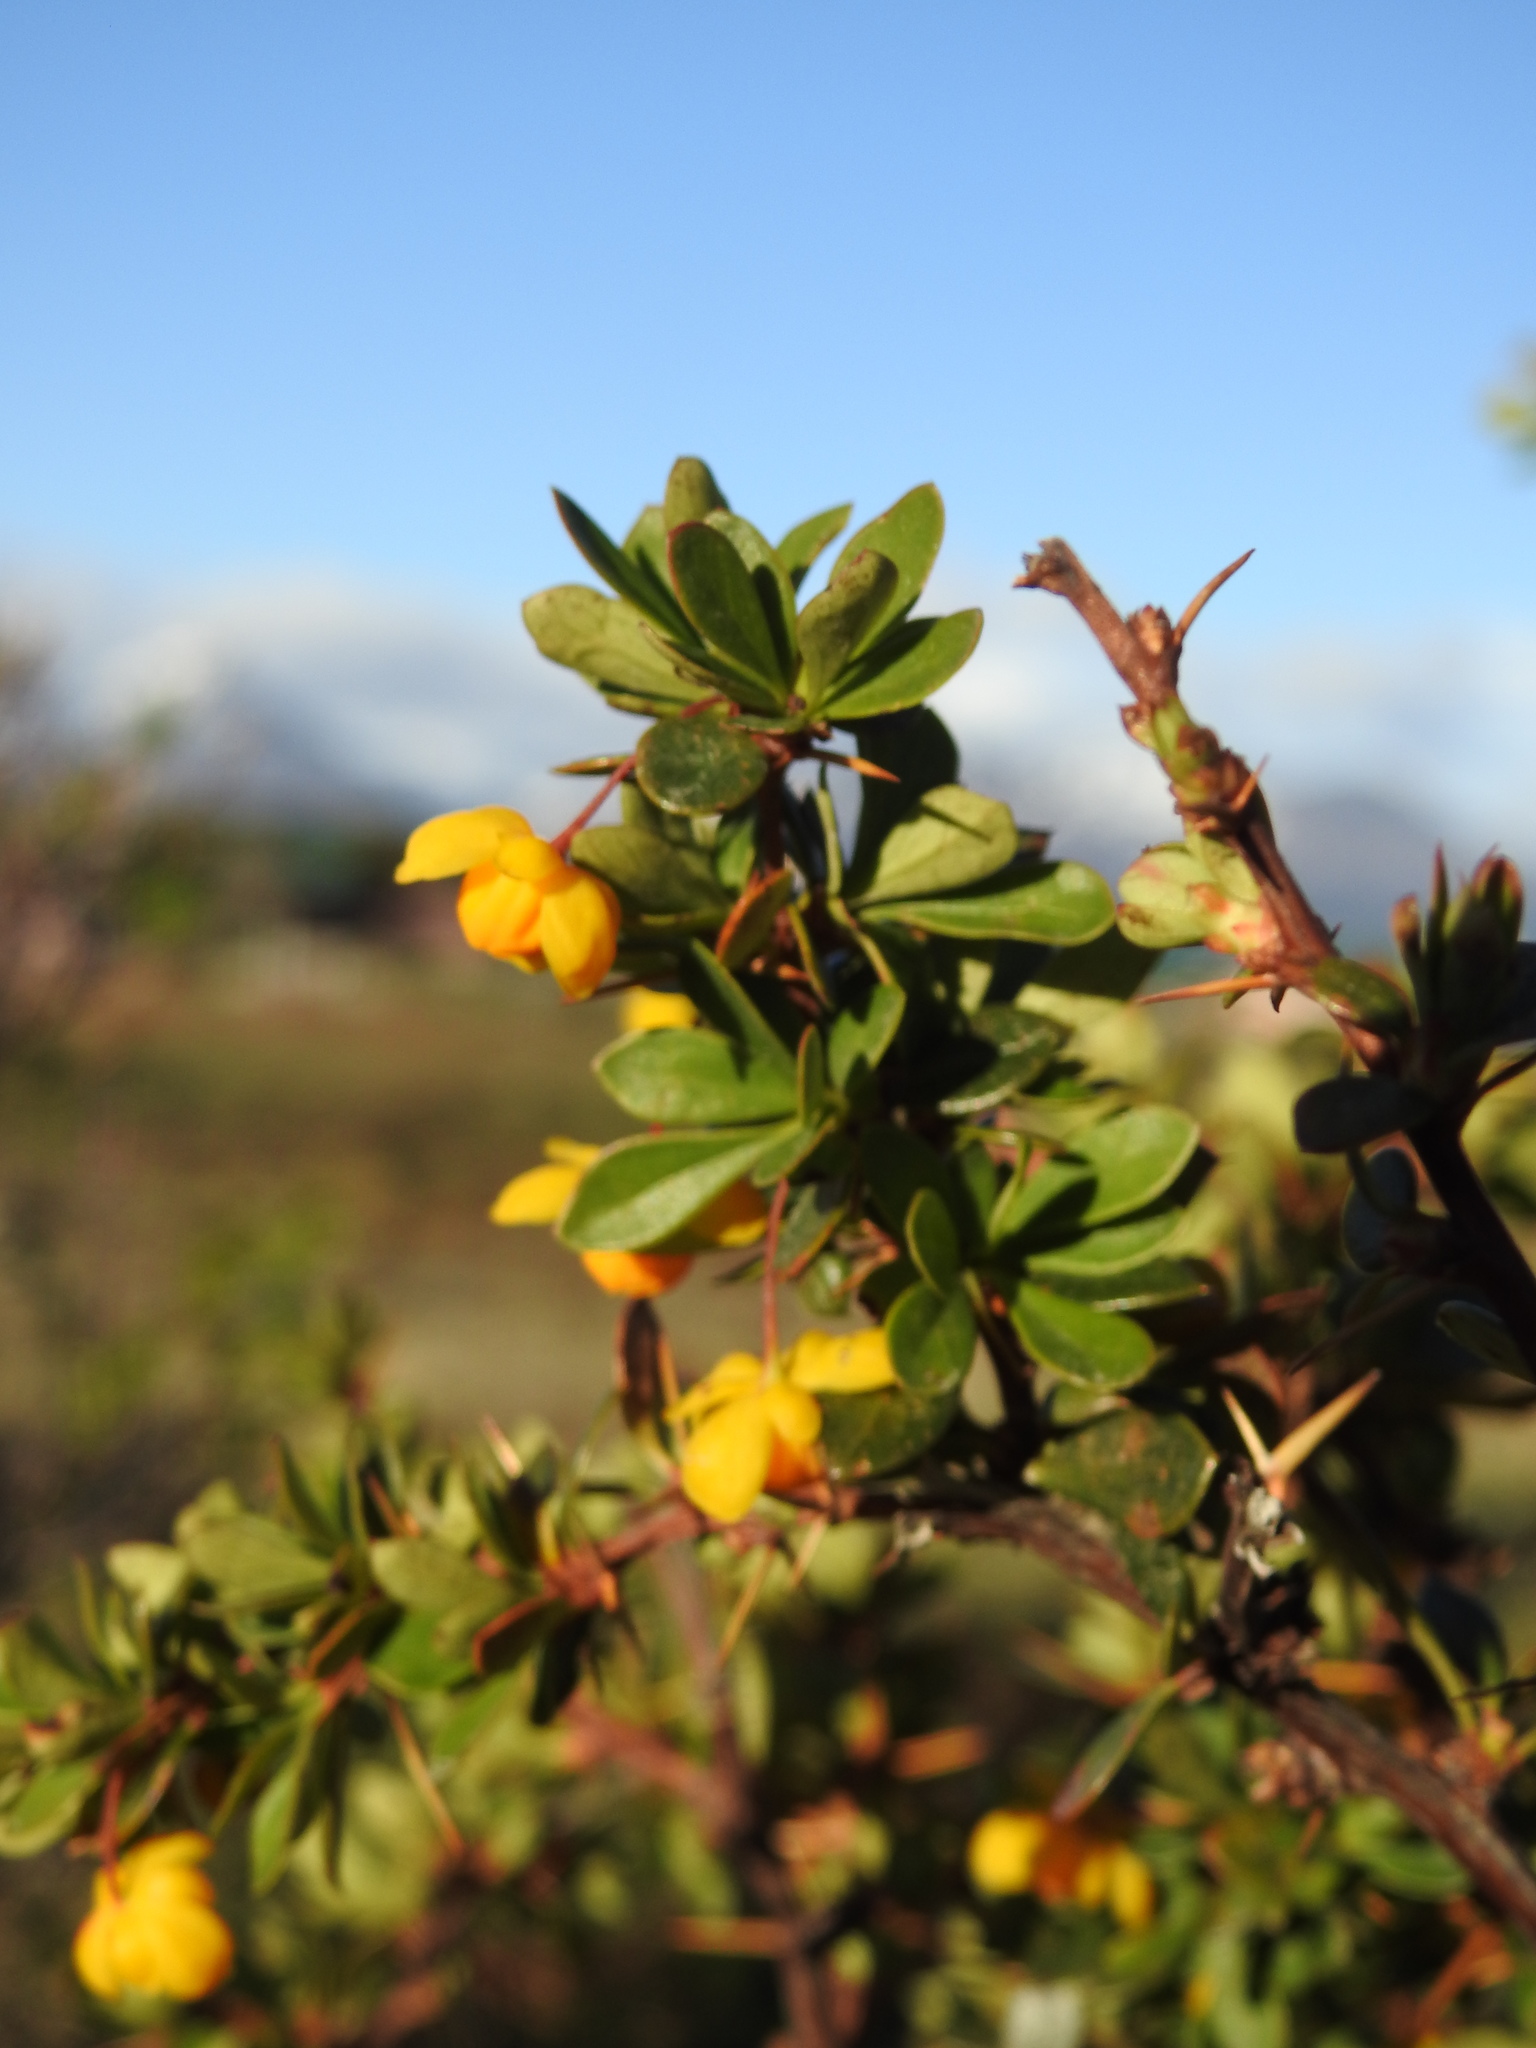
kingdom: Plantae
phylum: Tracheophyta
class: Magnoliopsida
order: Ranunculales
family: Berberidaceae
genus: Berberis
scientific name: Berberis microphylla
